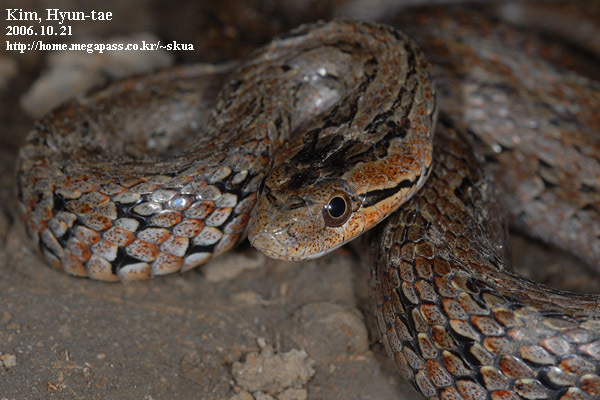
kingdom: Animalia
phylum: Chordata
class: Squamata
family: Colubridae
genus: Oocatochus
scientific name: Oocatochus rufodorsatus
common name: Frog-eating rat snake
